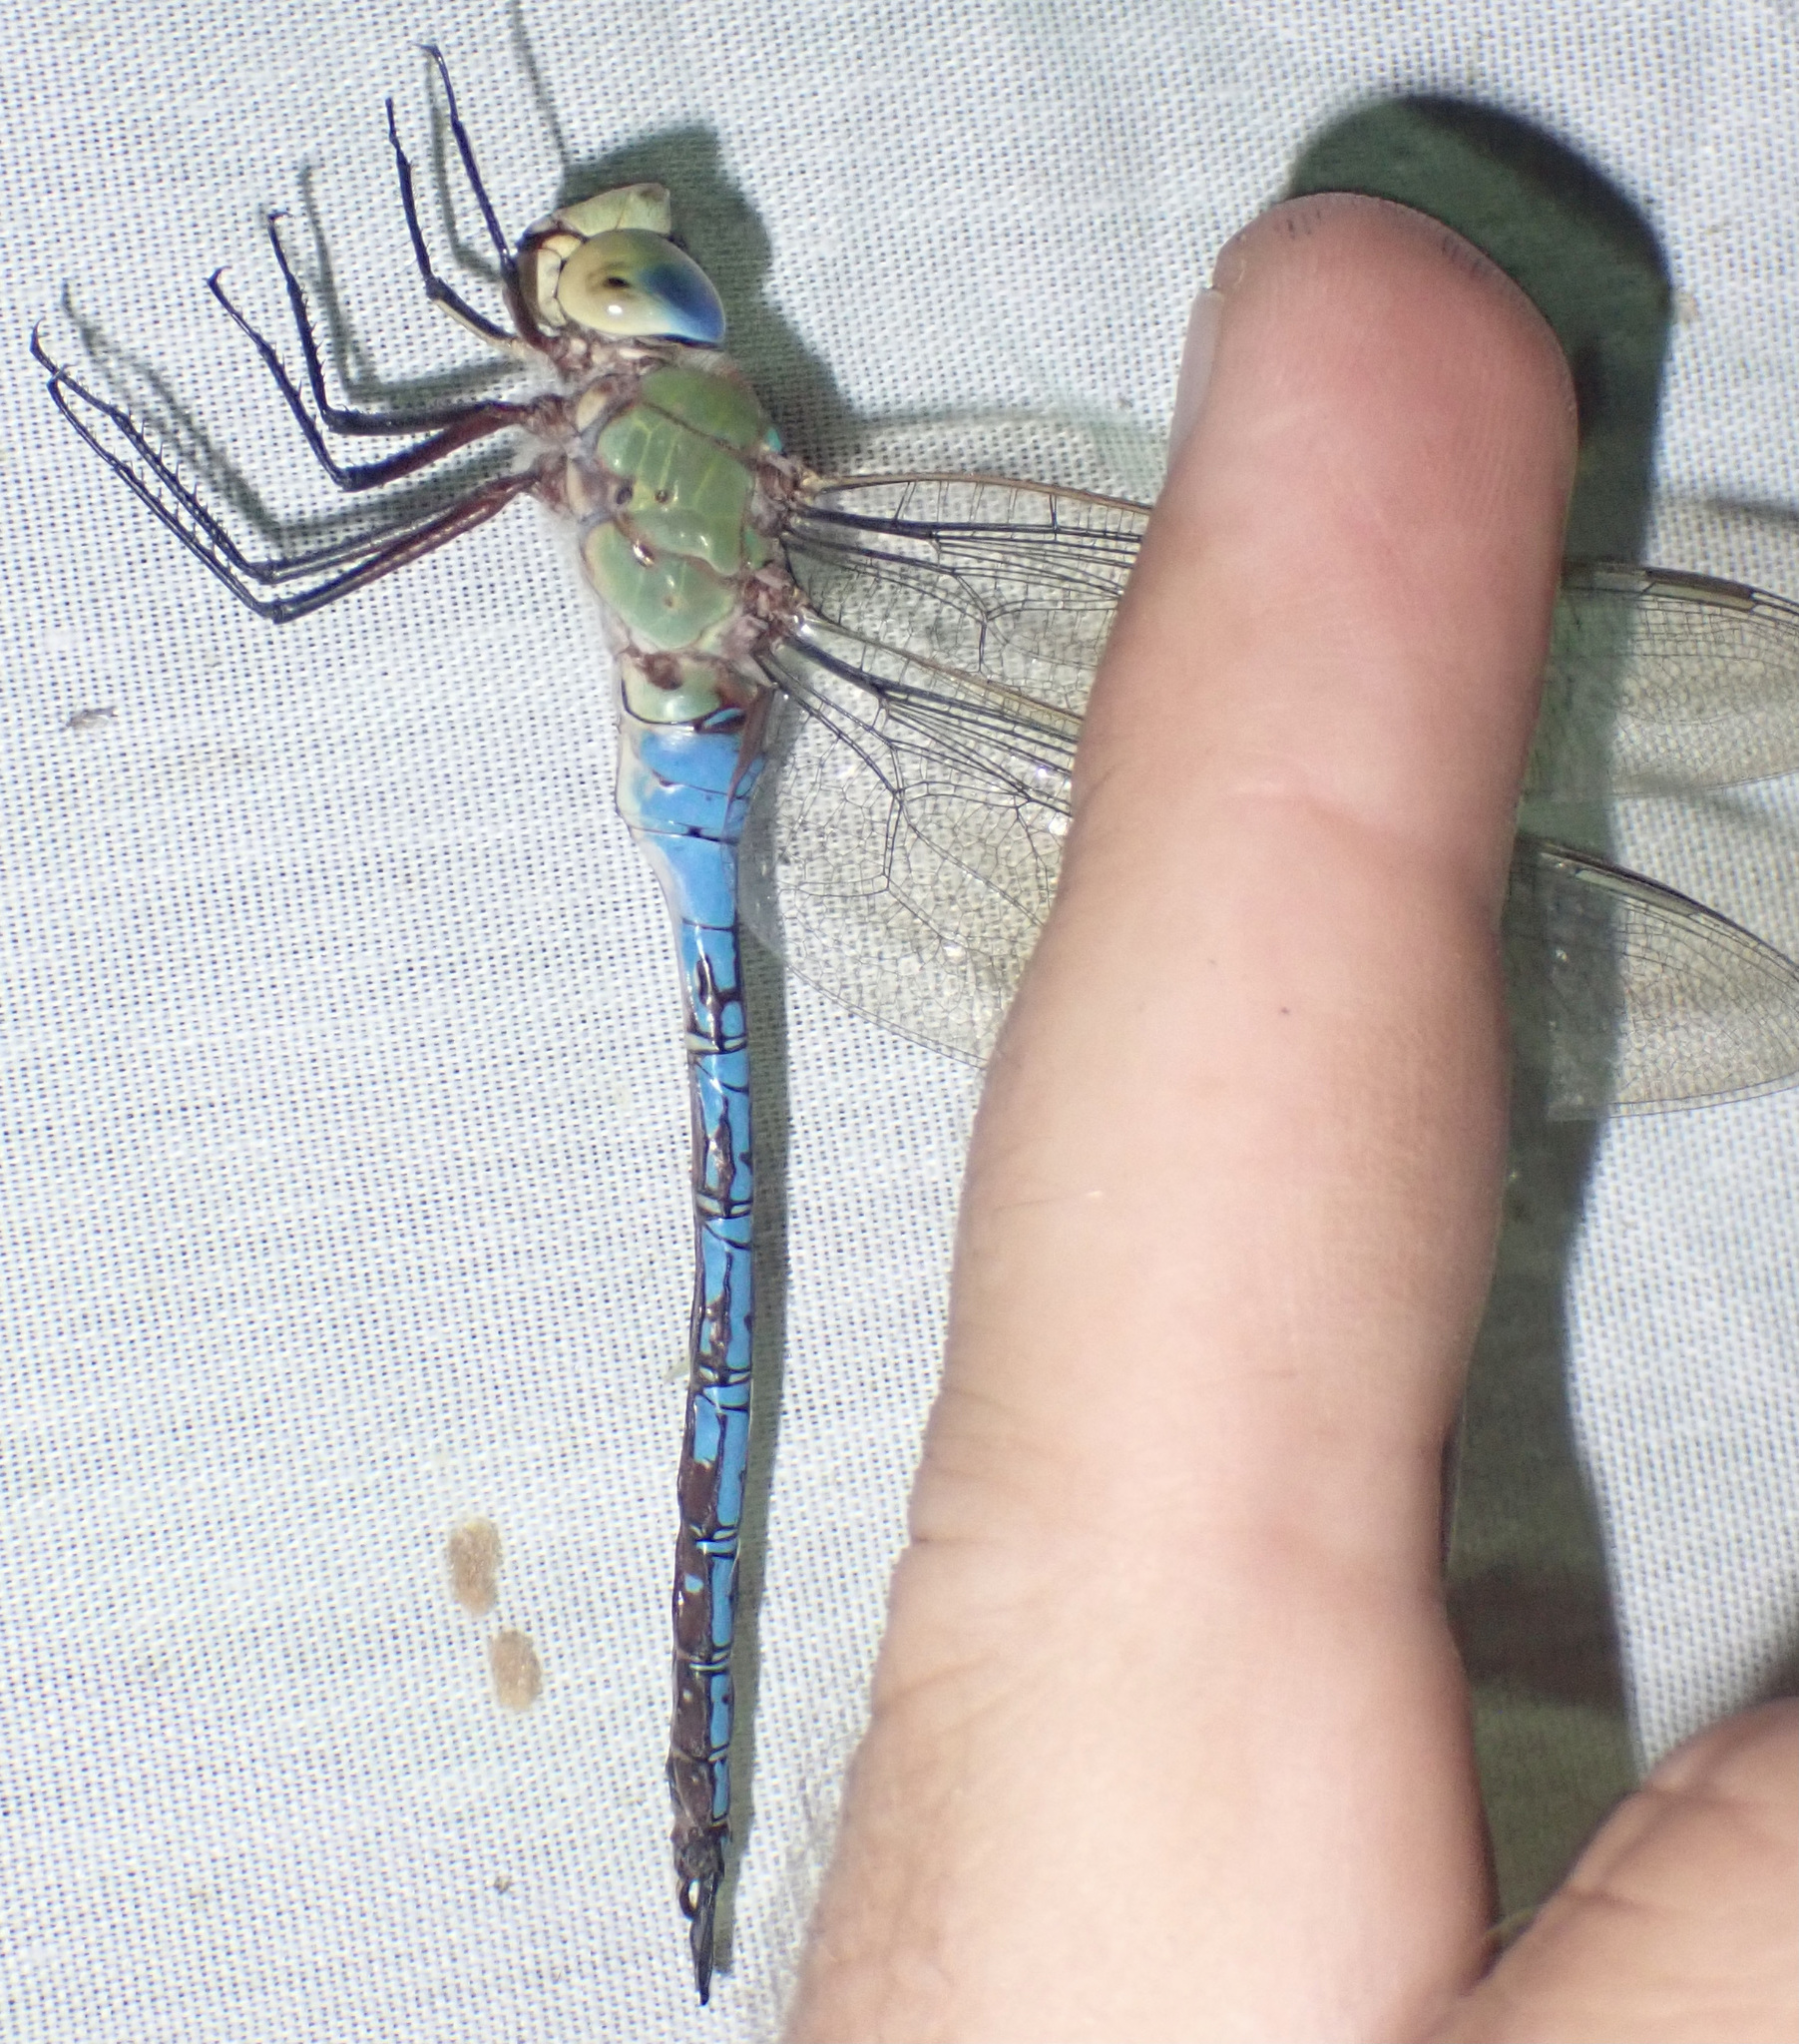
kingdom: Animalia
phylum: Arthropoda
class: Insecta
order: Odonata
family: Aeshnidae
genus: Anax
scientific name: Anax imperator
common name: Emperor dragonfly
